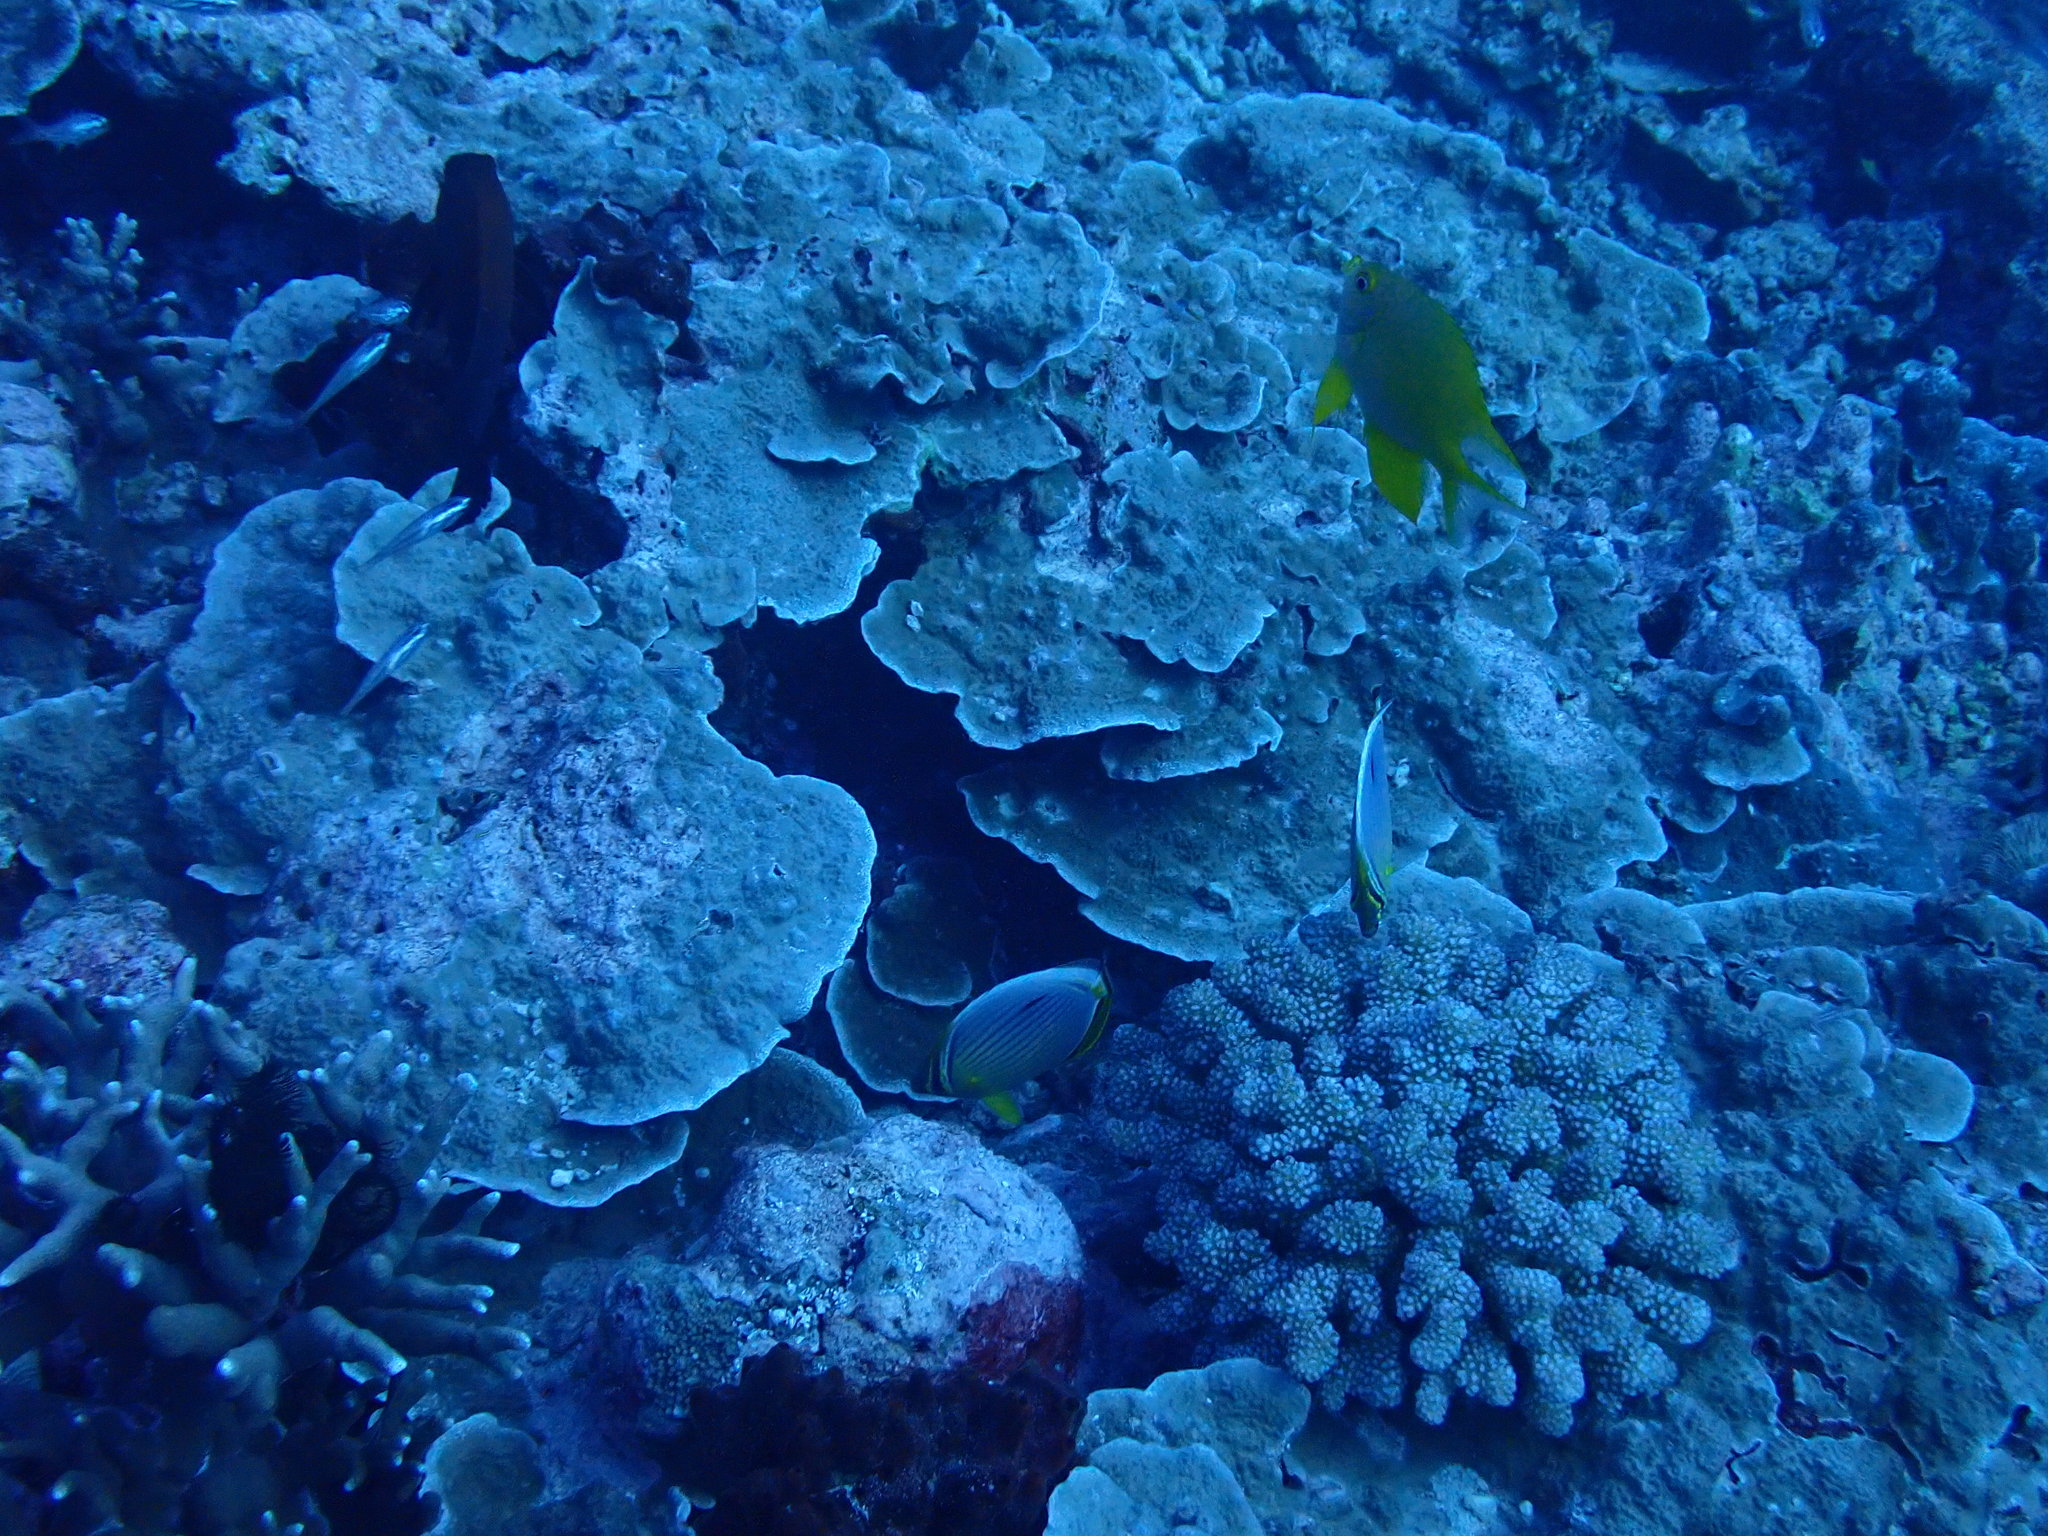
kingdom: Animalia
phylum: Chordata
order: Perciformes
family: Pomacentridae
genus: Amblyglyphidodon
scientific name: Amblyglyphidodon aureus
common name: Golden damsel
